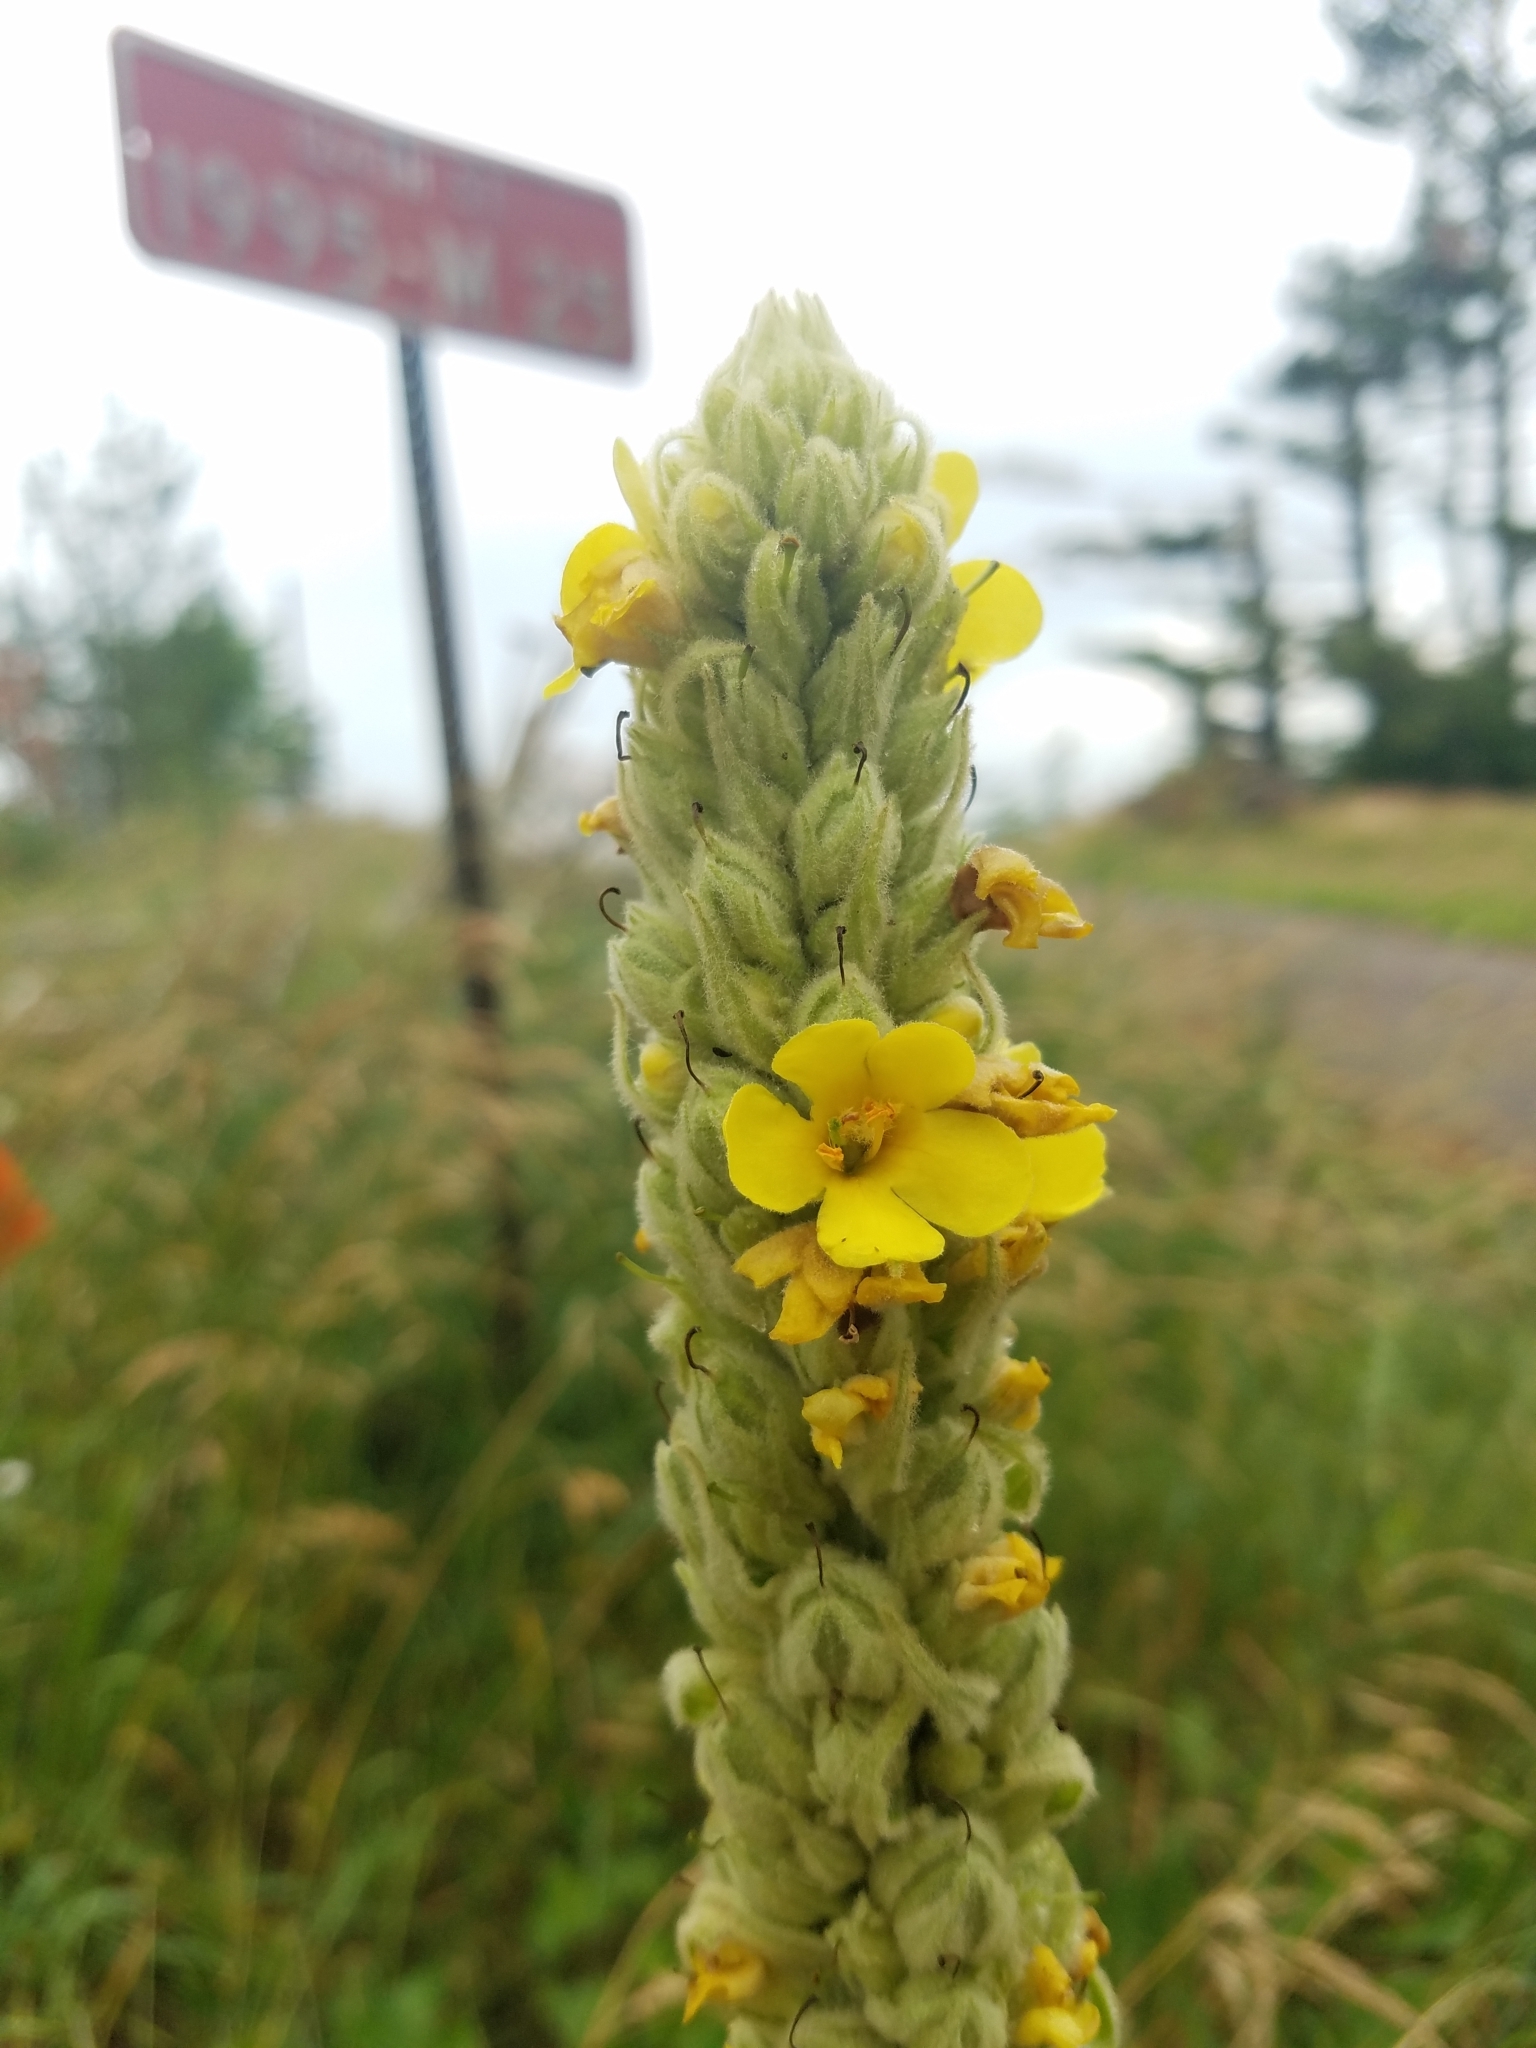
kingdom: Plantae
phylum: Tracheophyta
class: Magnoliopsida
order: Lamiales
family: Scrophulariaceae
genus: Verbascum
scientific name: Verbascum thapsus
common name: Common mullein
